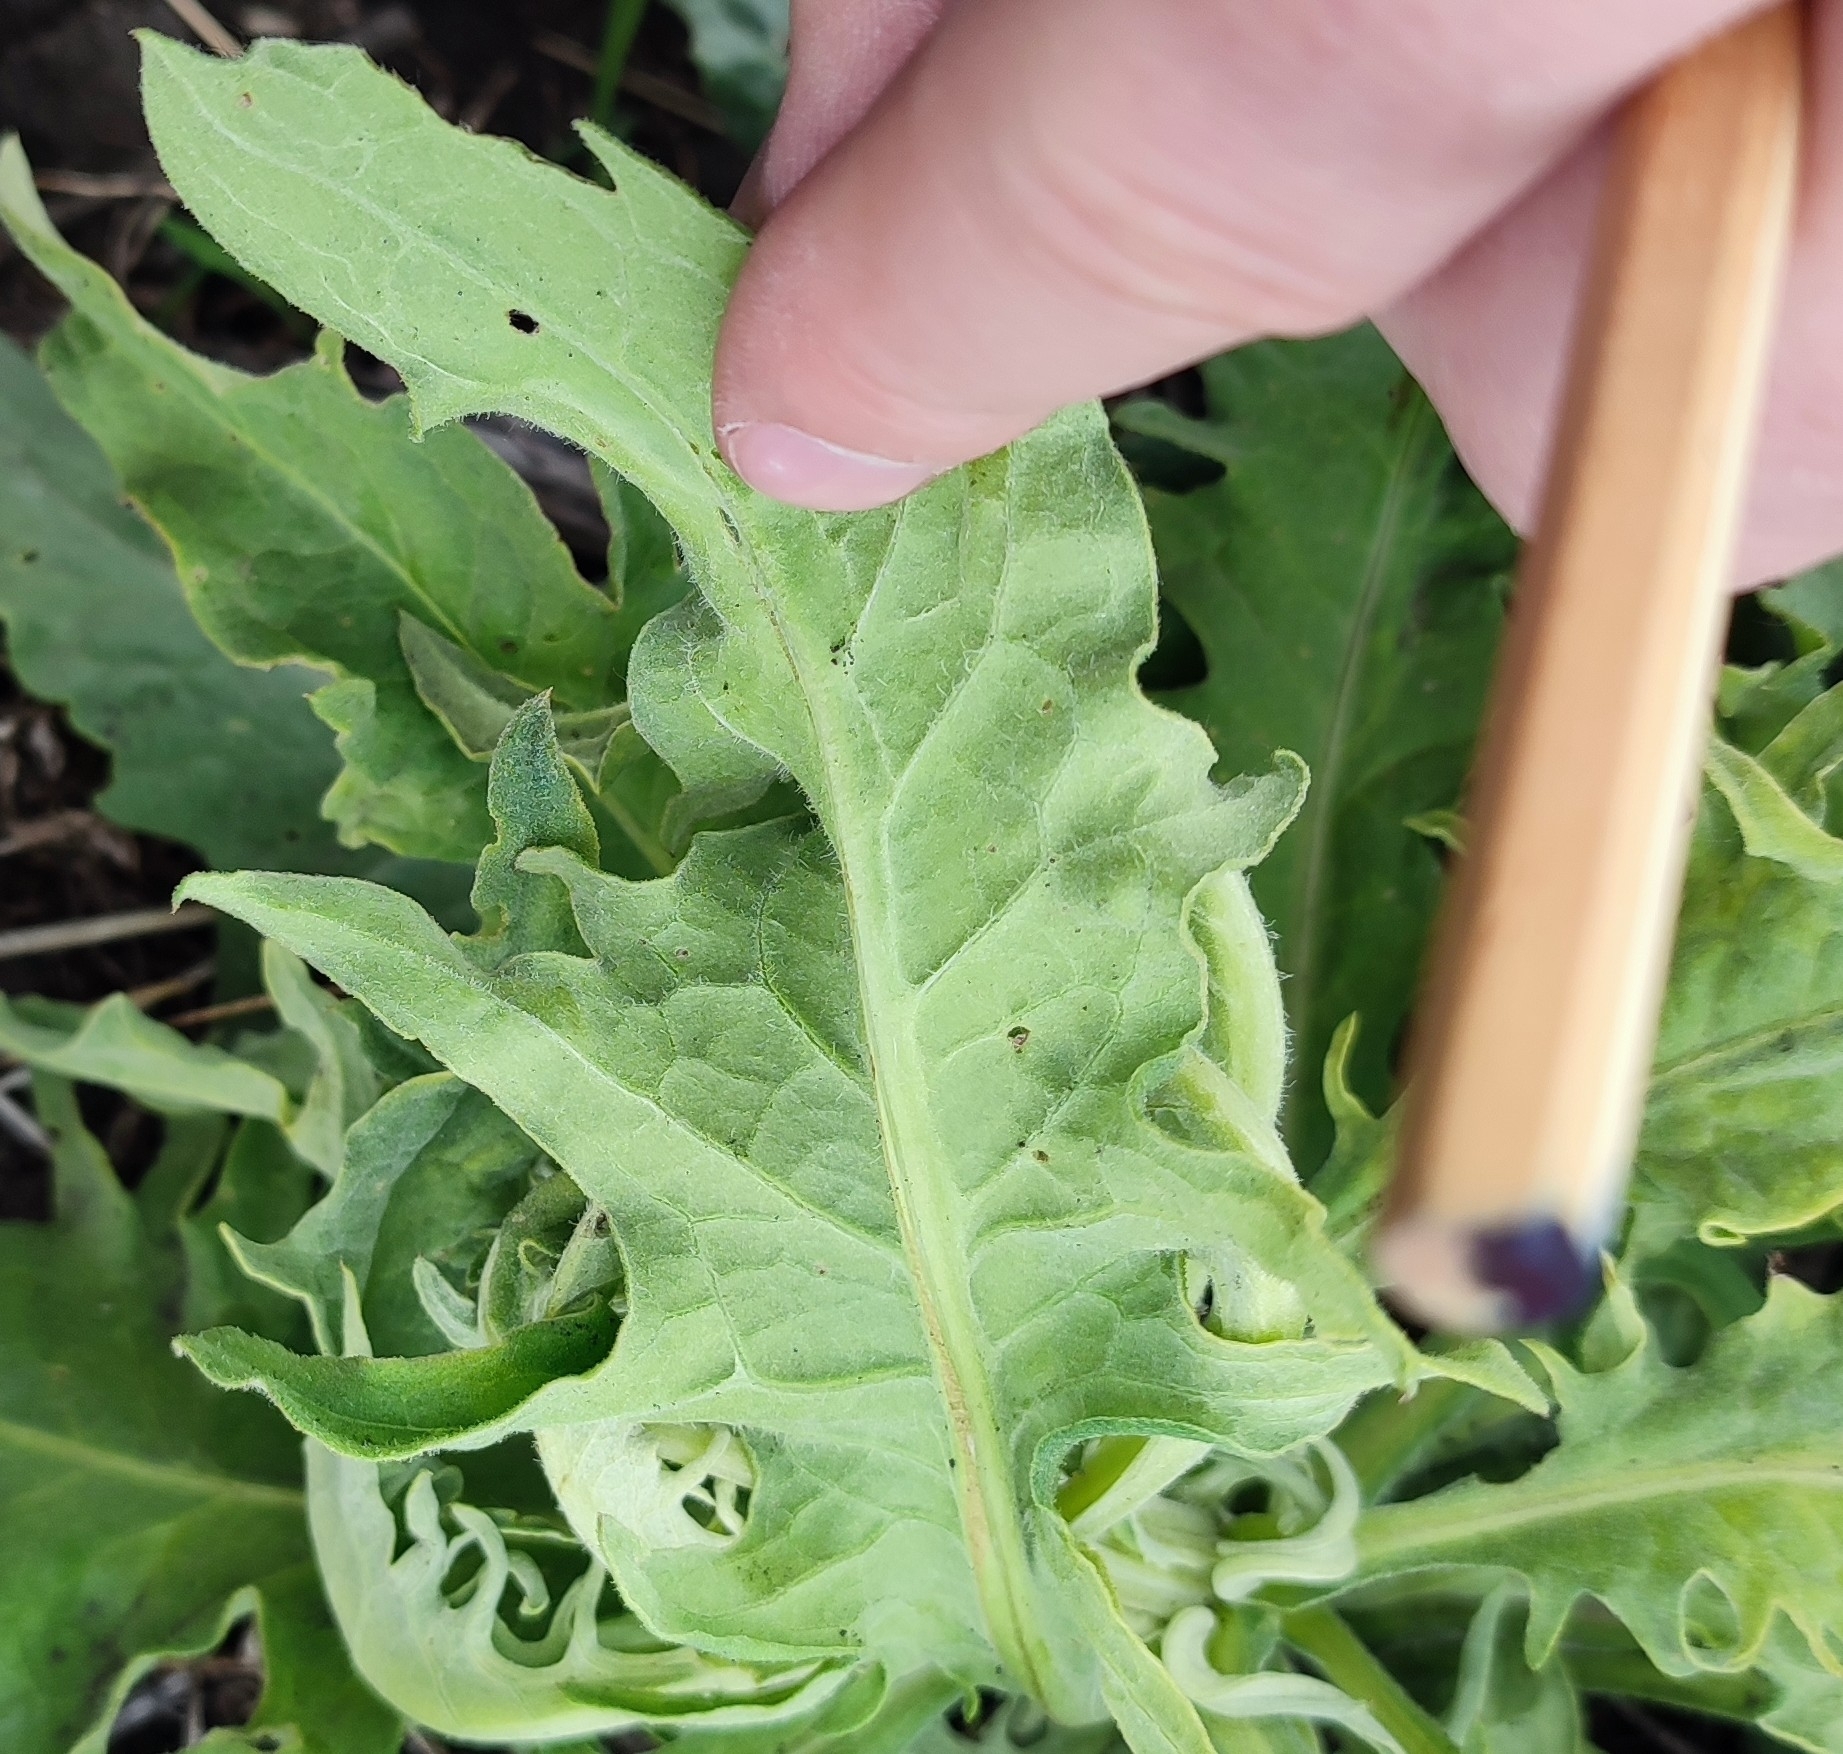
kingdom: Plantae
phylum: Tracheophyta
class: Magnoliopsida
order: Asterales
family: Asteraceae
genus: Saussurea
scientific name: Saussurea amara
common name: Alberta sawwort
